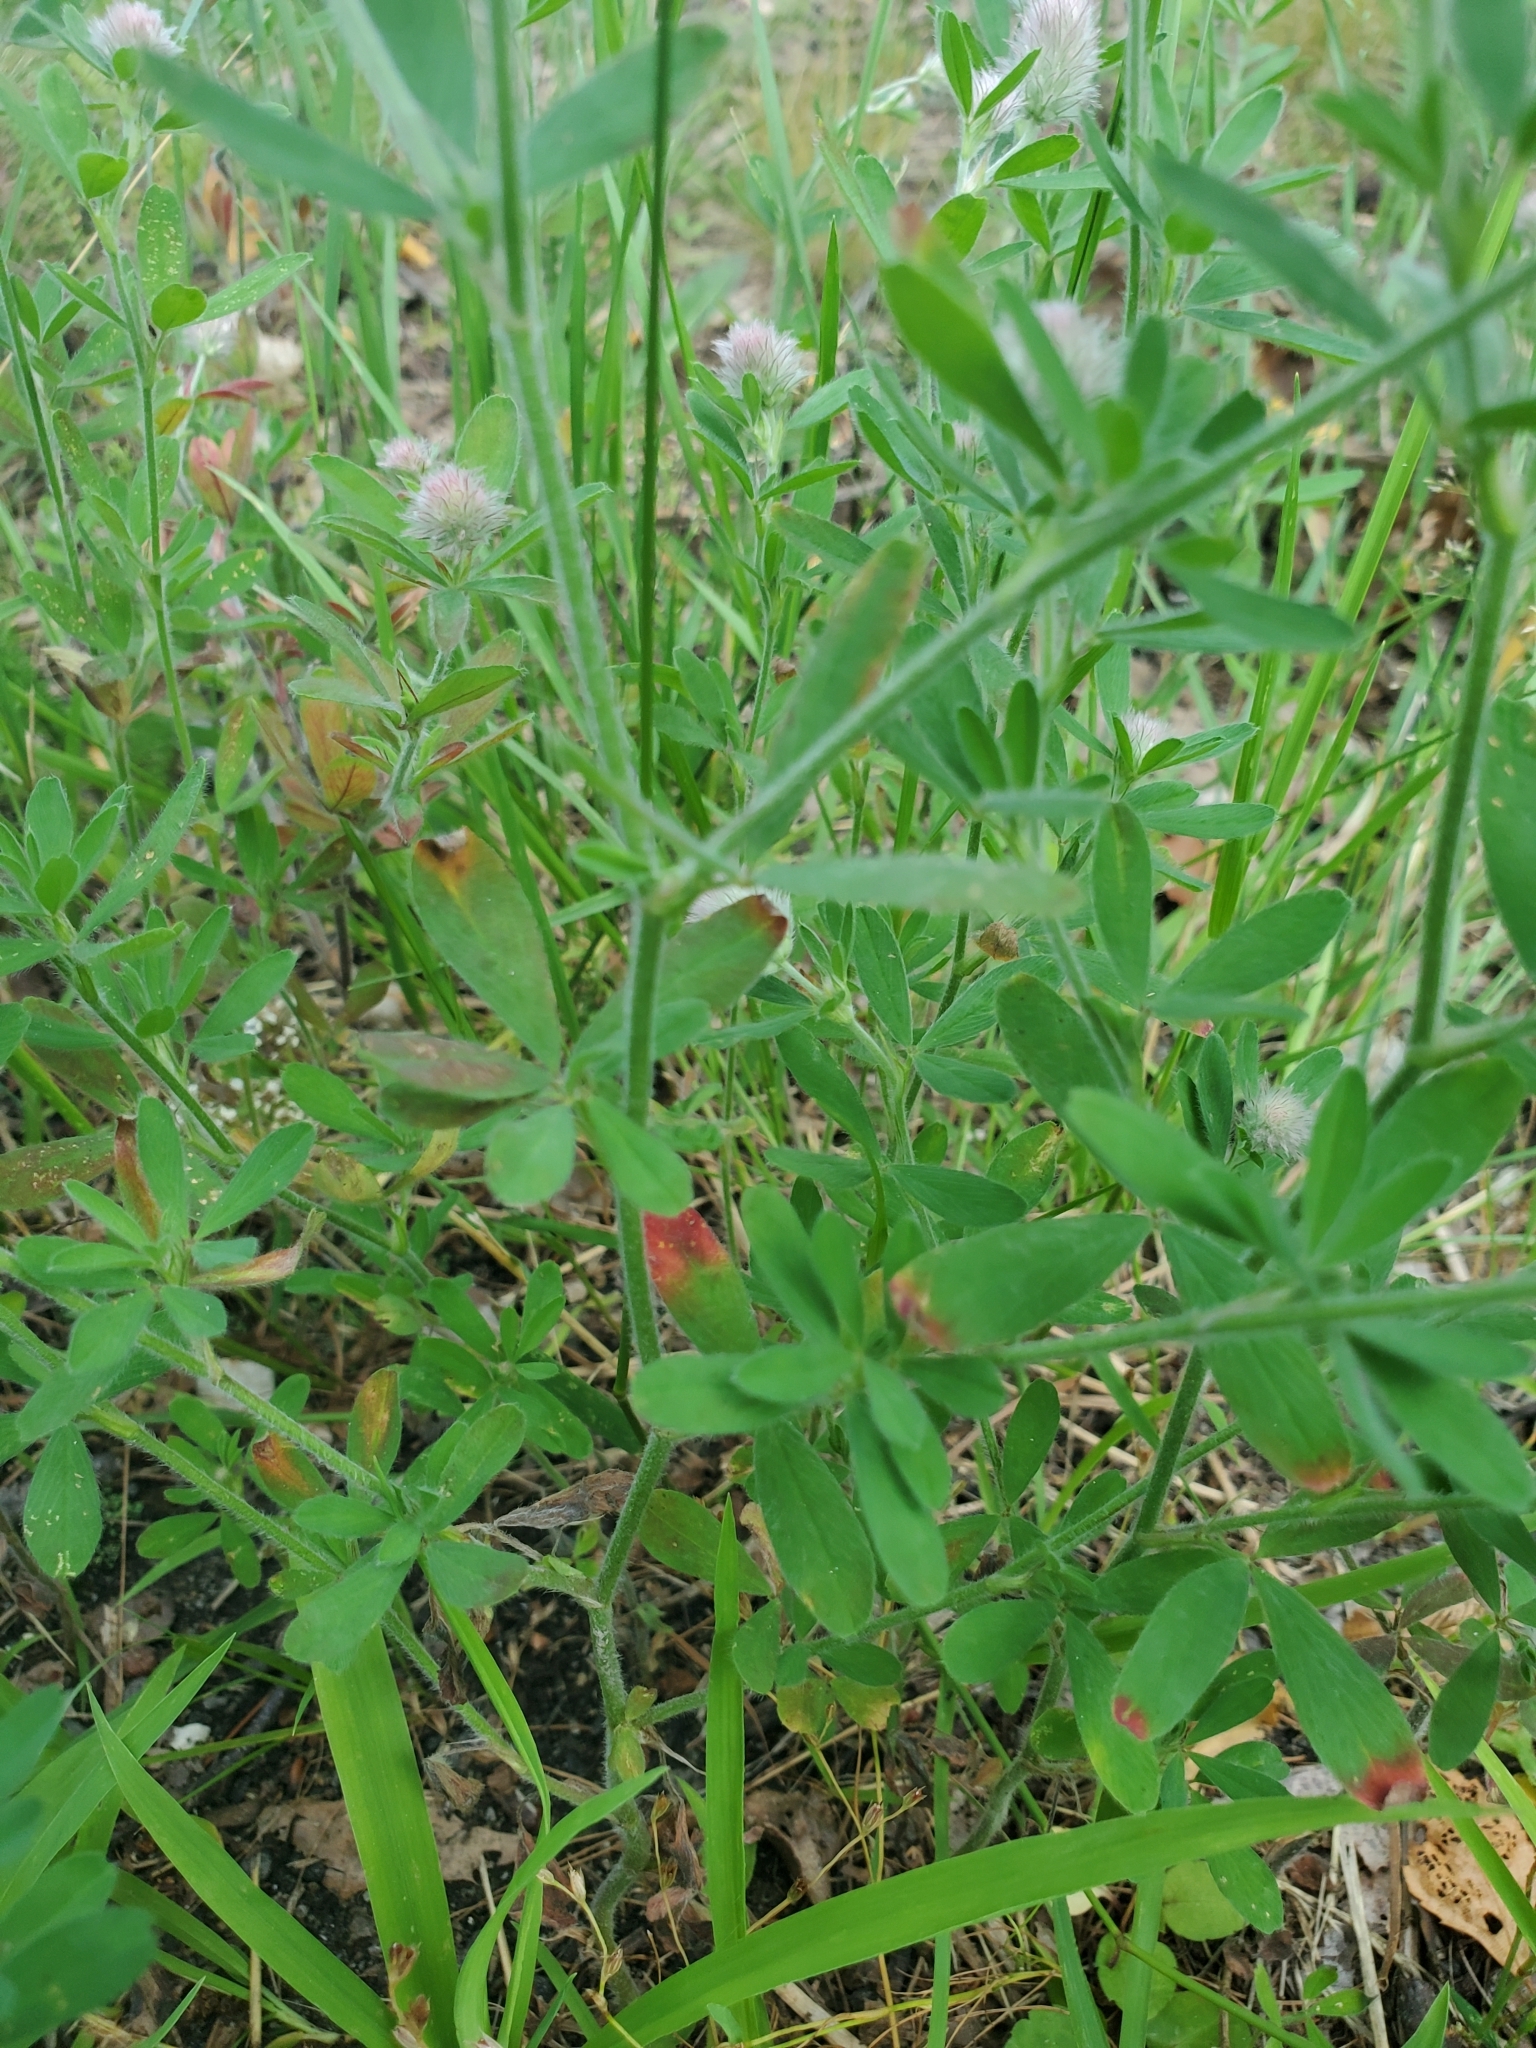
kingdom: Plantae
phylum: Tracheophyta
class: Magnoliopsida
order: Fabales
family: Fabaceae
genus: Trifolium
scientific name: Trifolium arvense
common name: Hare's-foot clover
